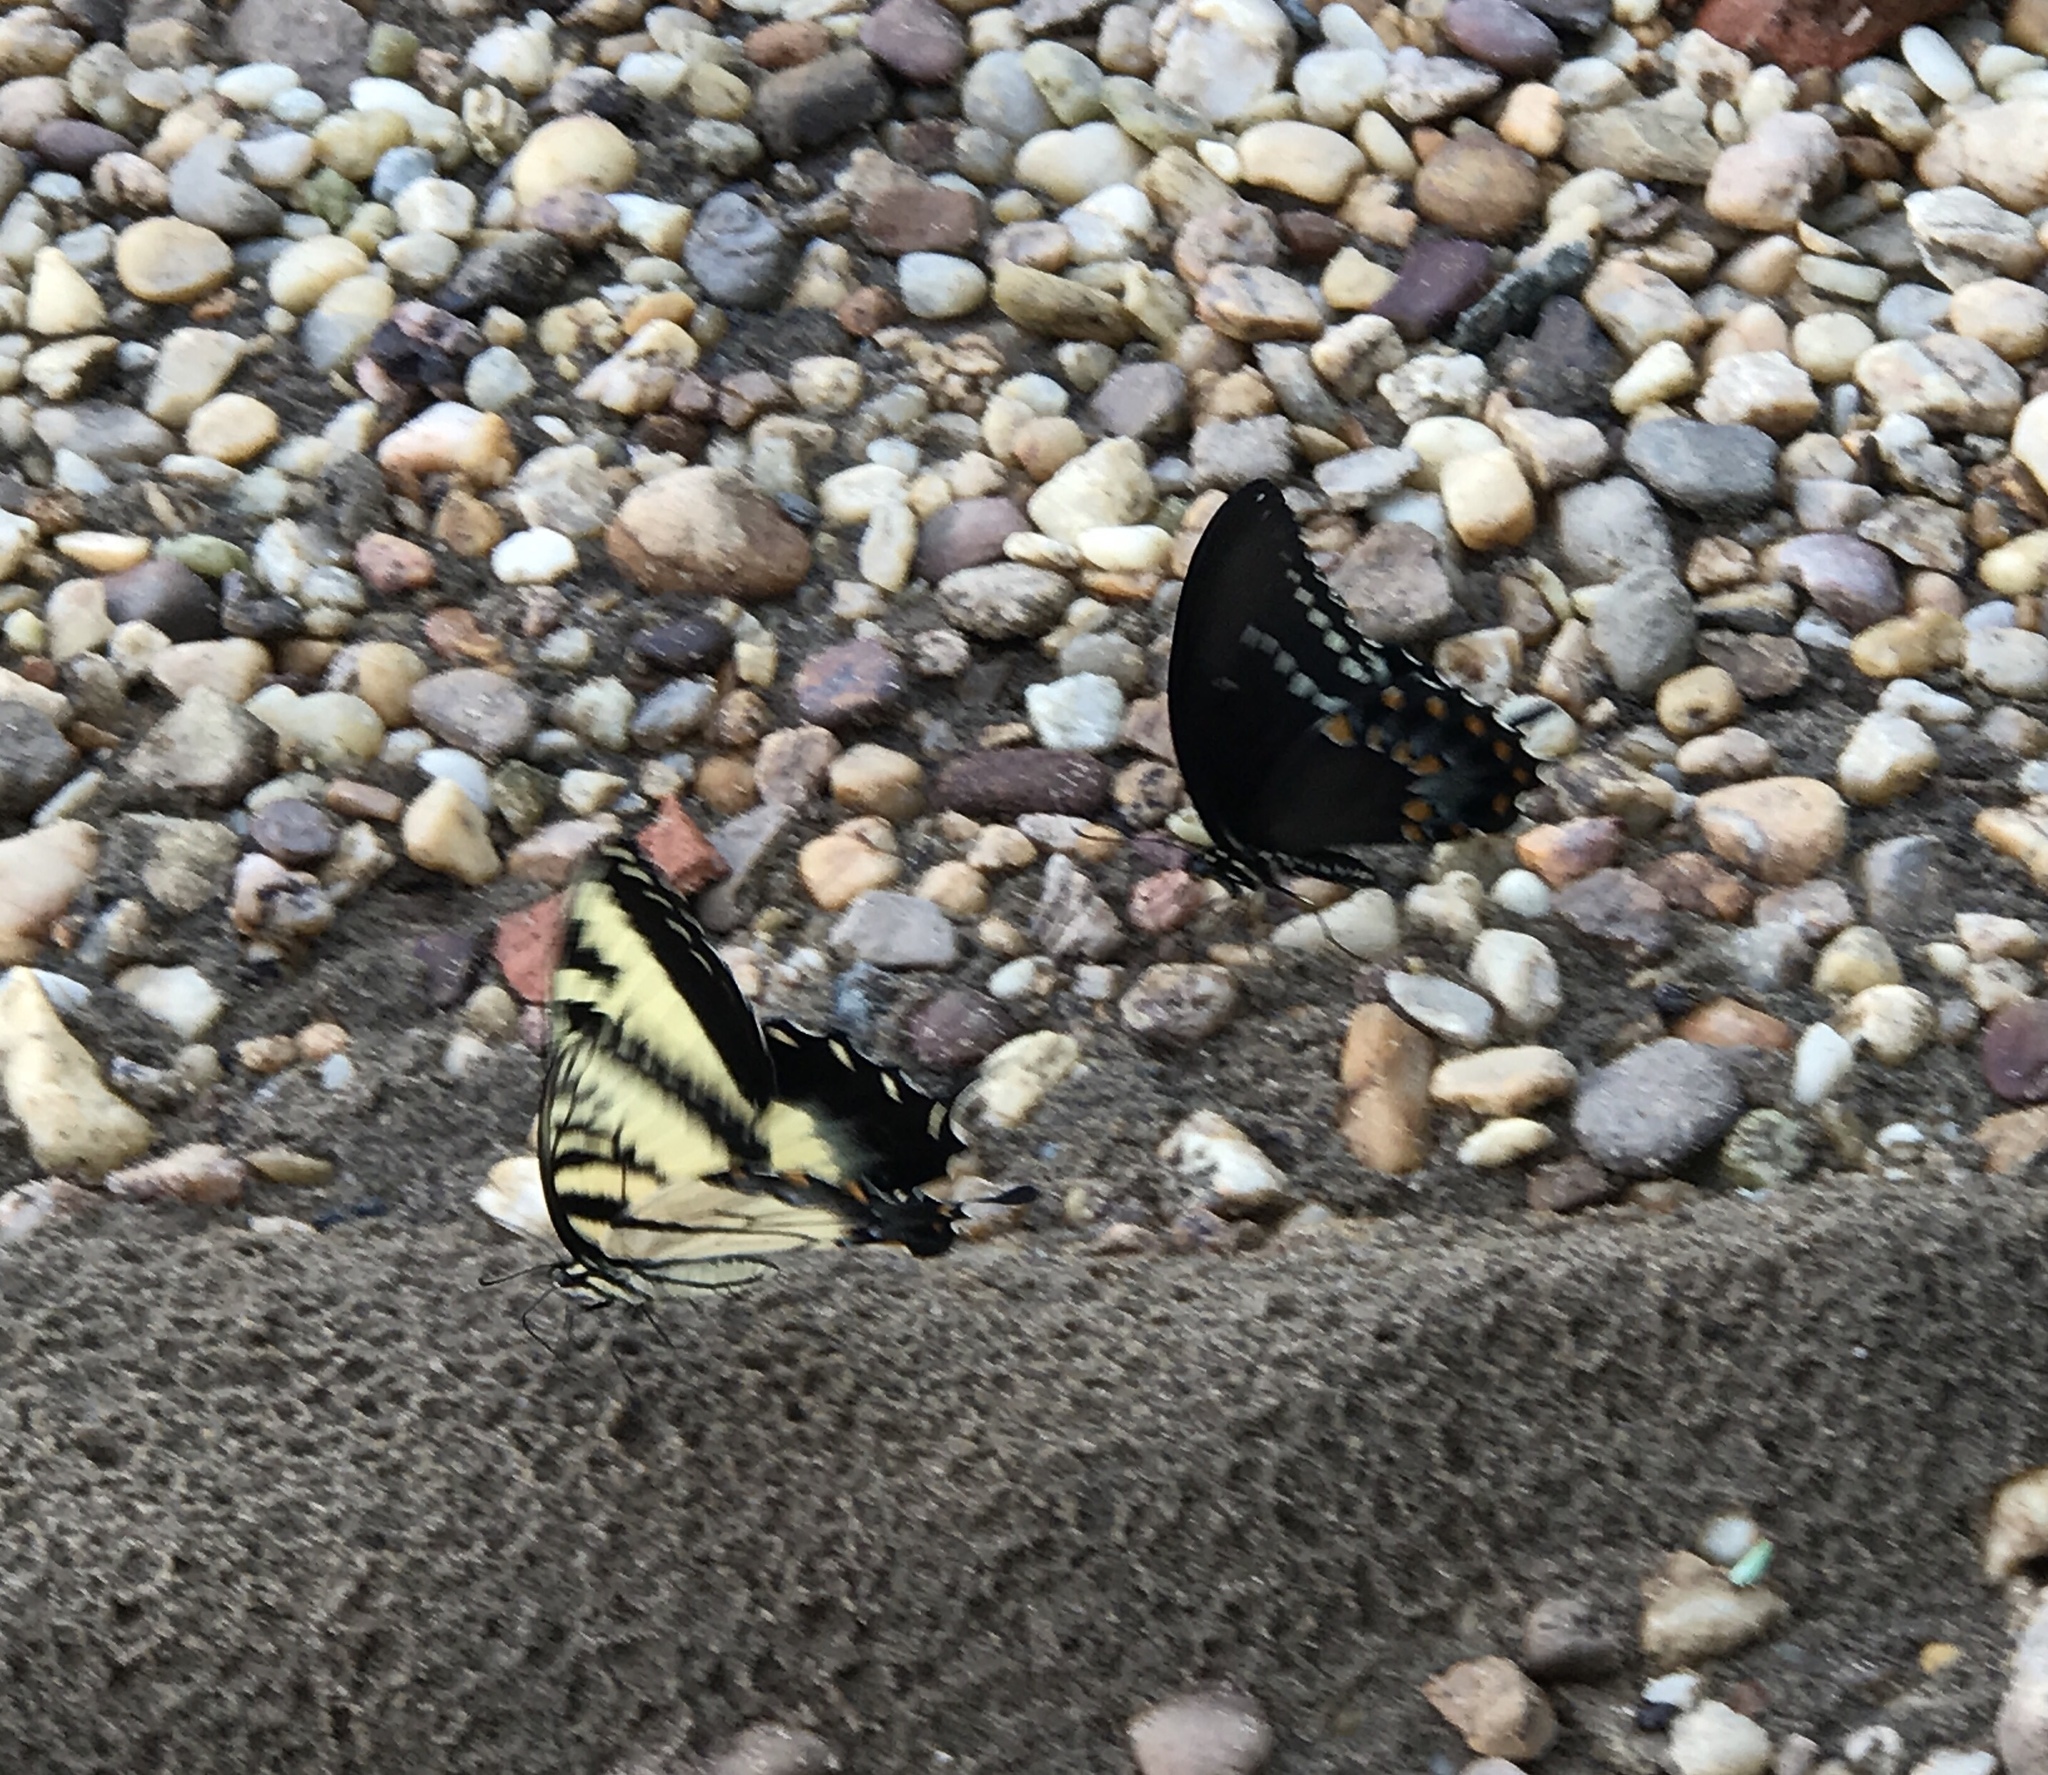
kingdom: Animalia
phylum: Arthropoda
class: Insecta
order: Lepidoptera
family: Papilionidae
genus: Papilio
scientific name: Papilio glaucus
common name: Tiger swallowtail
